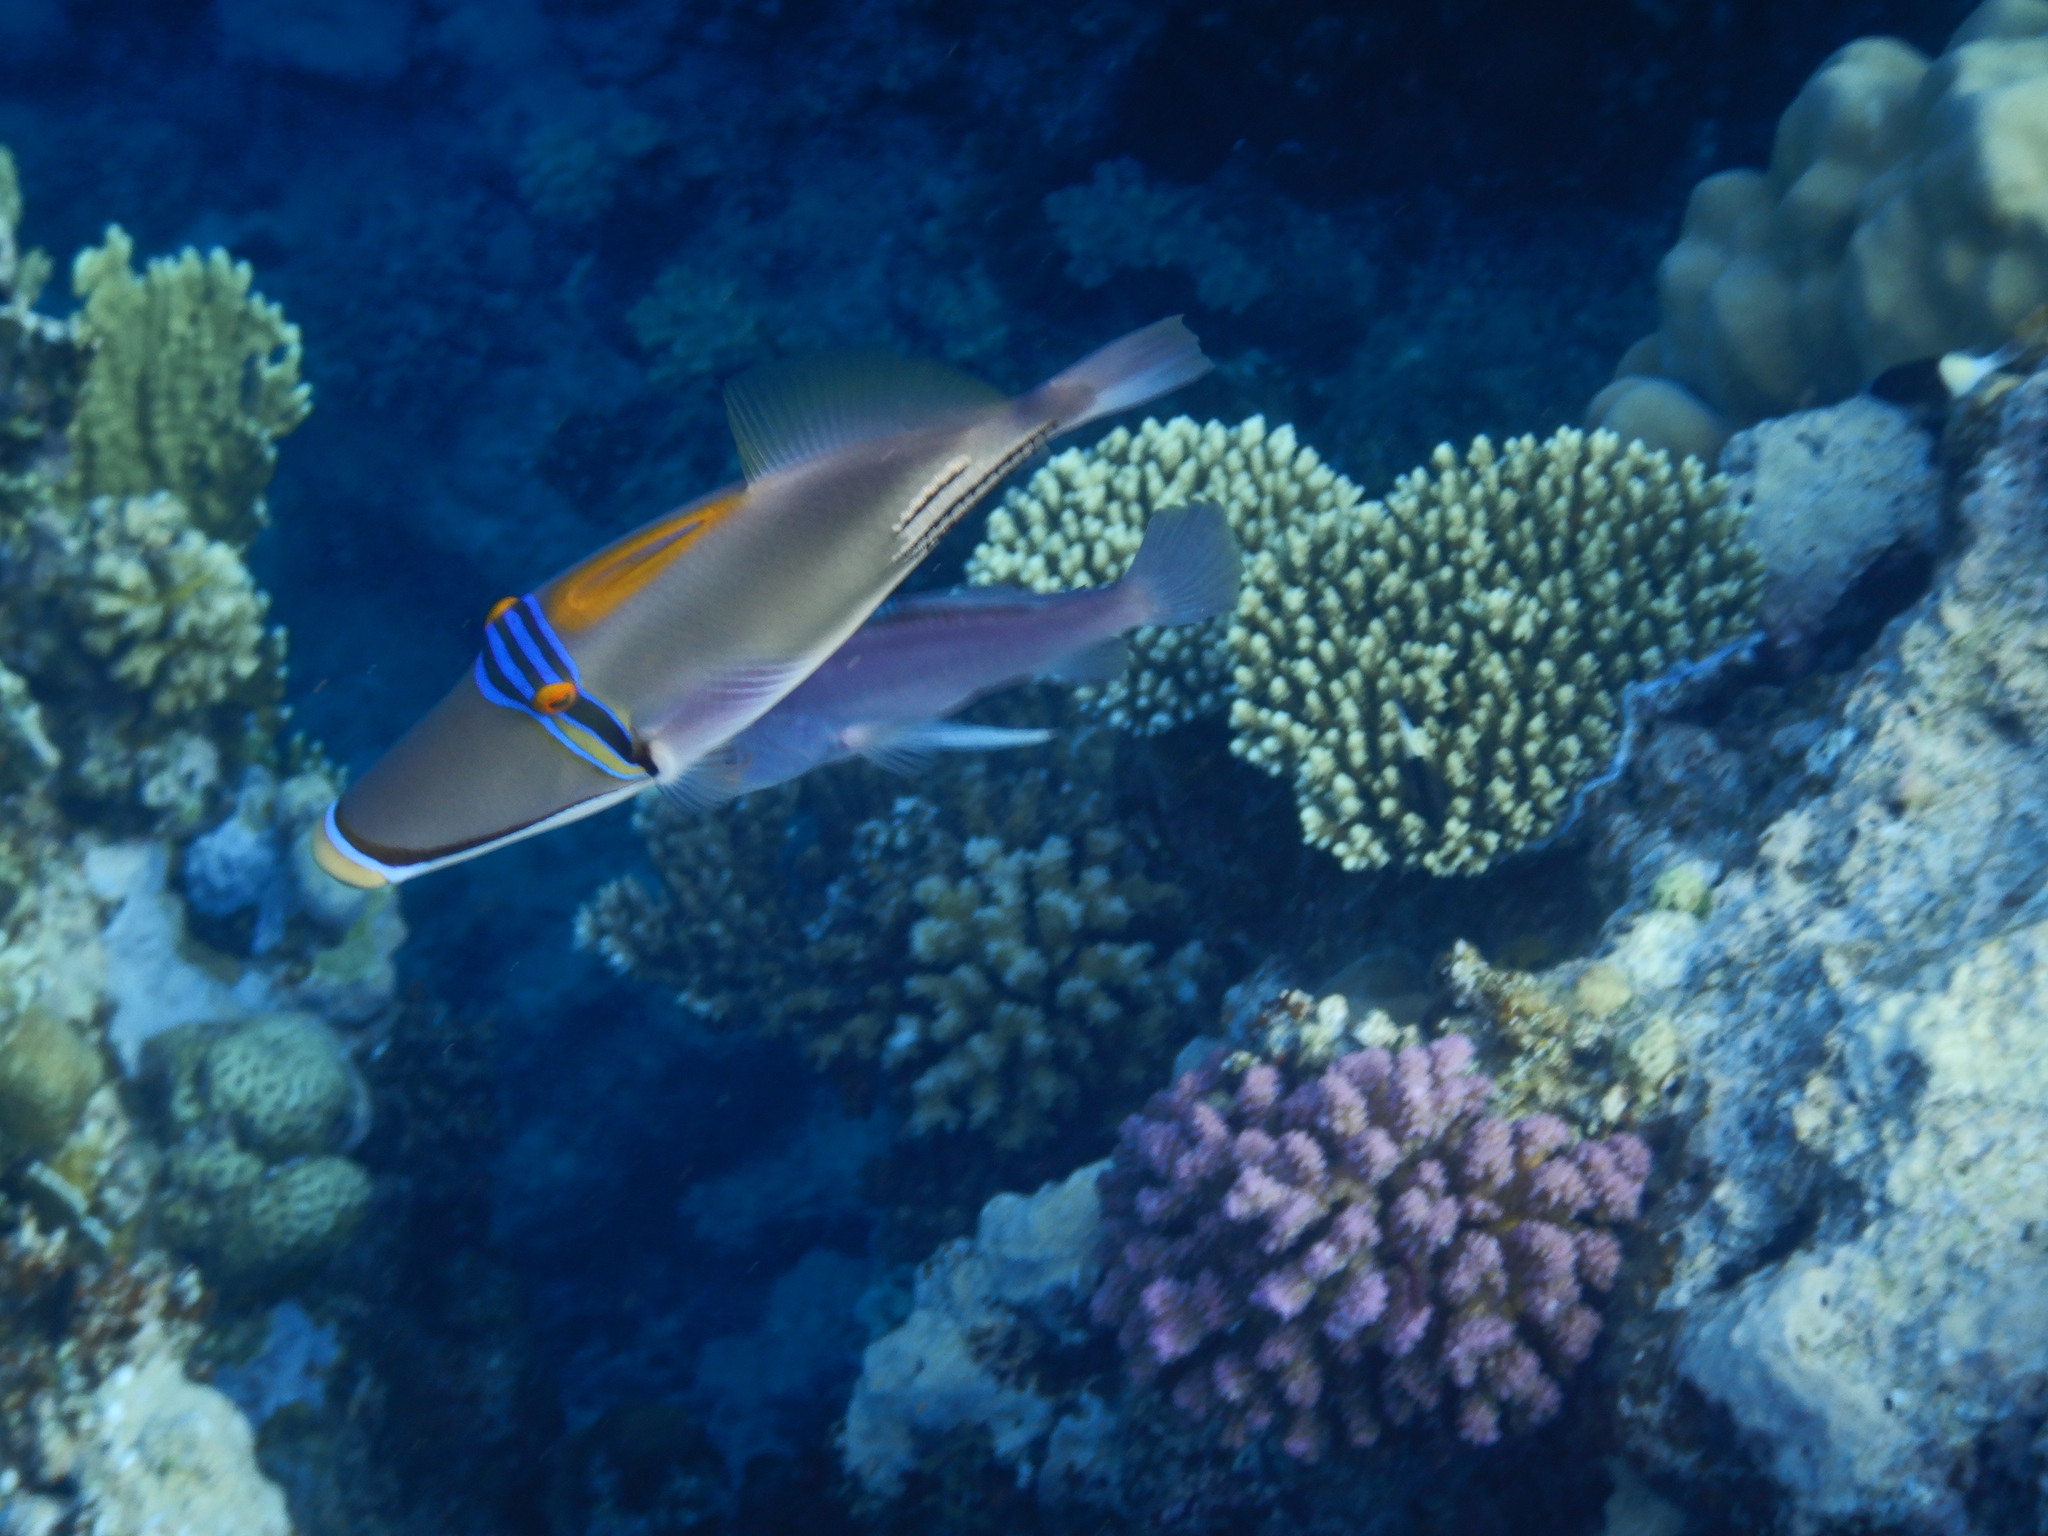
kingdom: Animalia
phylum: Chordata
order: Tetraodontiformes
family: Balistidae
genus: Rhinecanthus
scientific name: Rhinecanthus assasi
